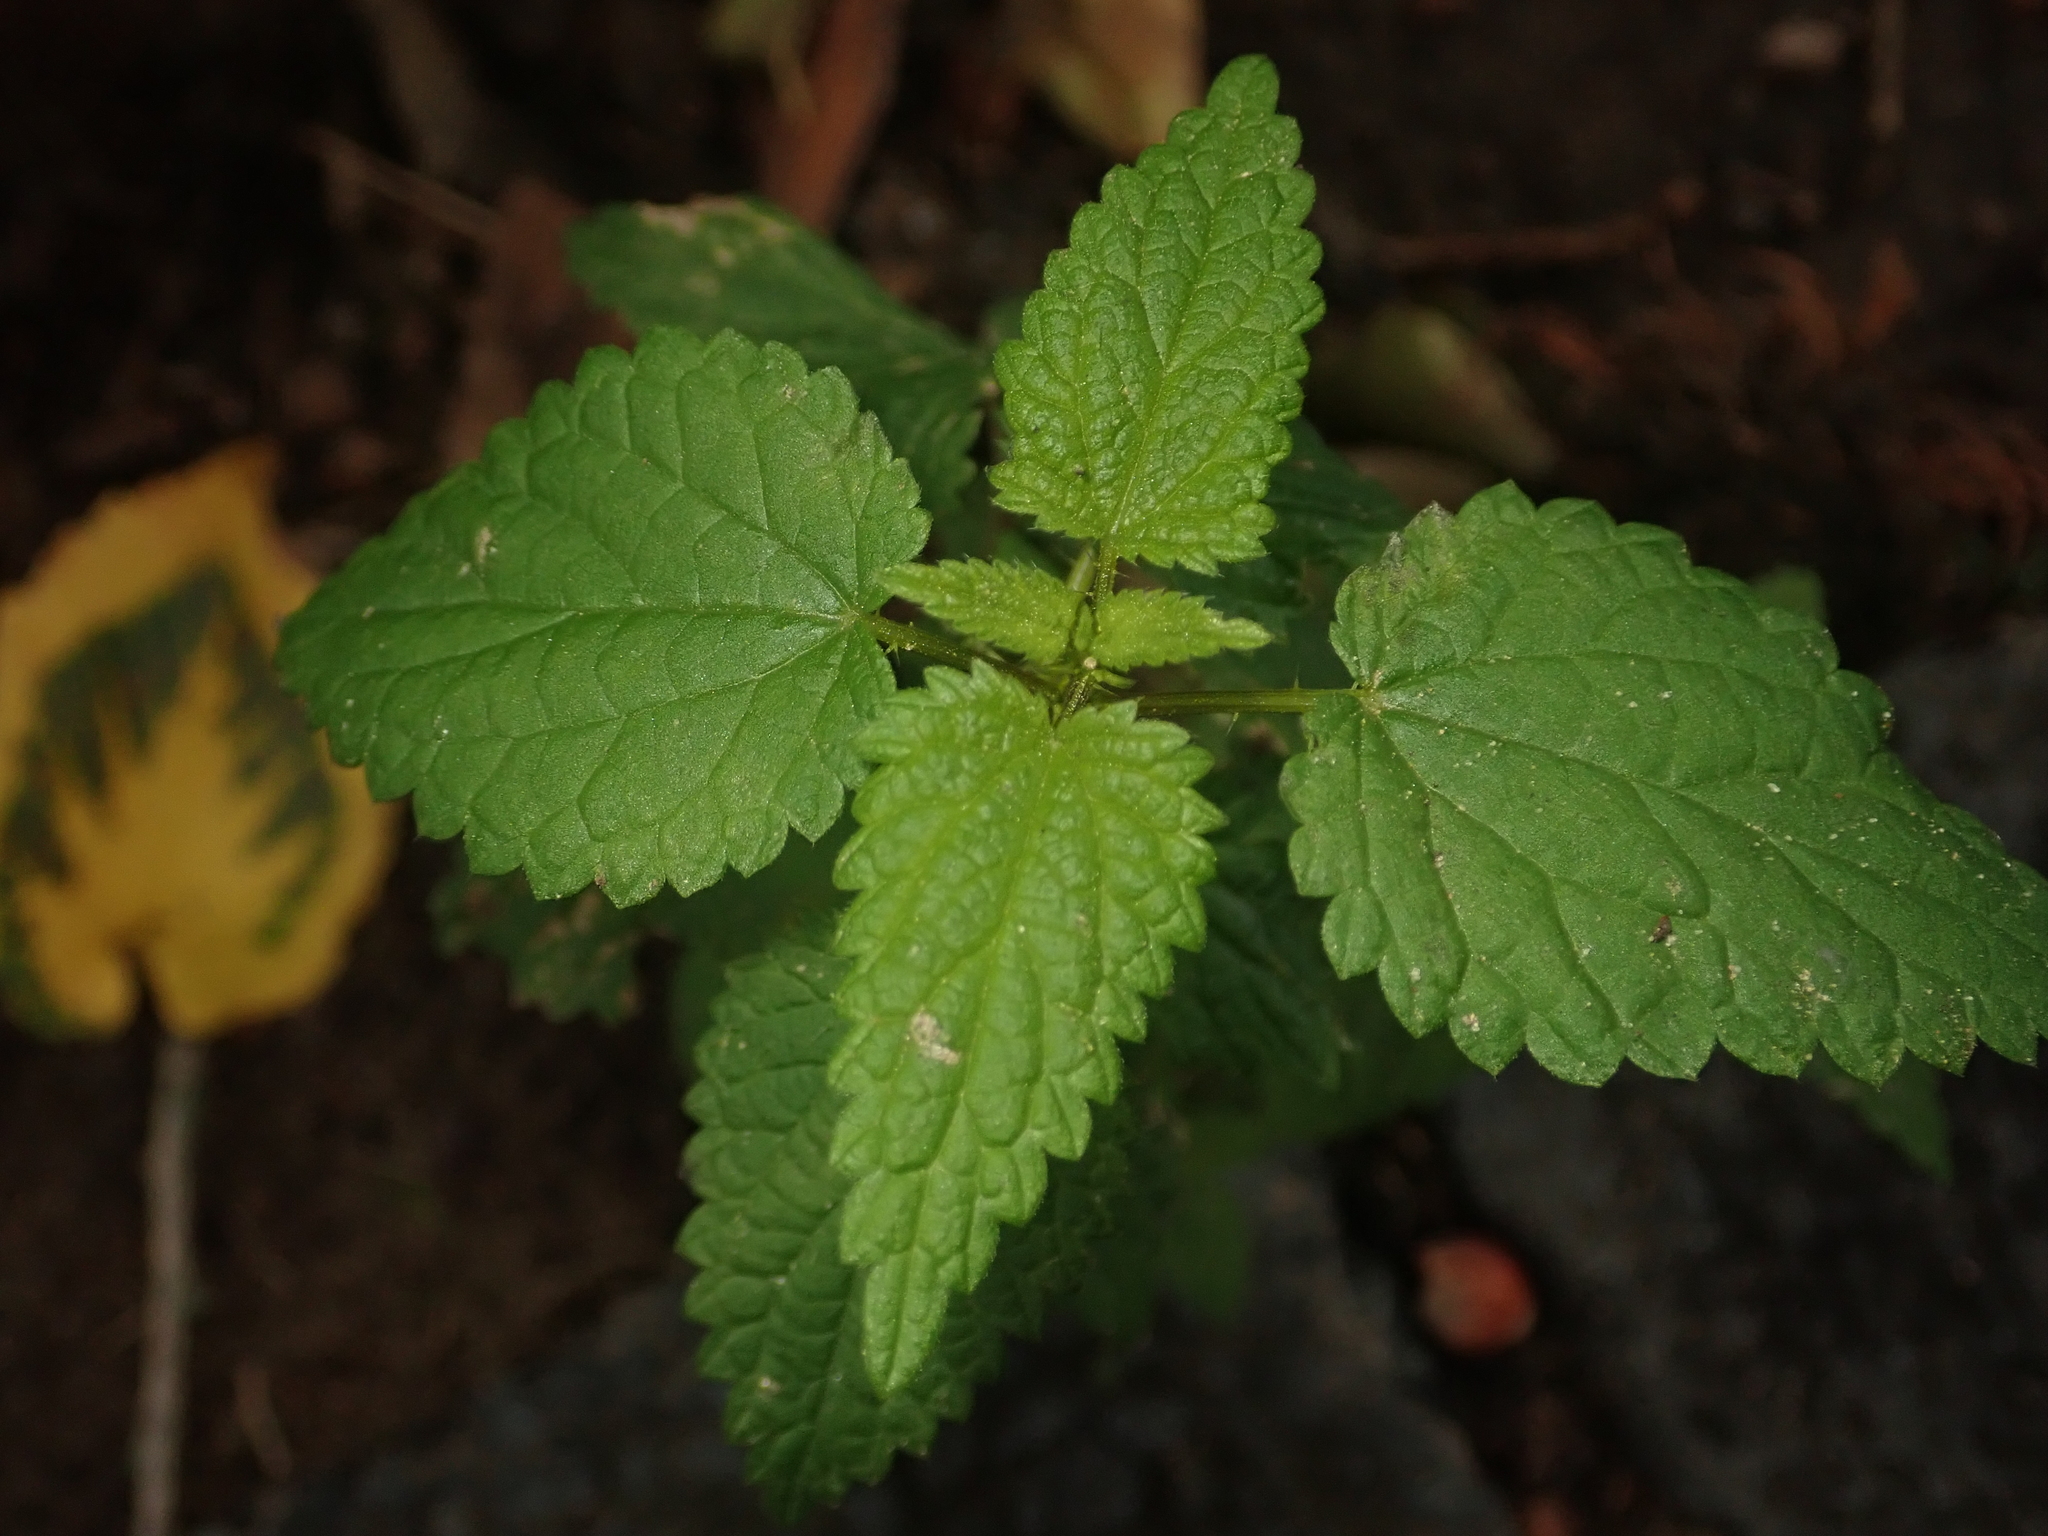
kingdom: Plantae
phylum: Tracheophyta
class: Magnoliopsida
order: Rosales
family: Urticaceae
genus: Urtica
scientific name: Urtica dioica
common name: Common nettle
